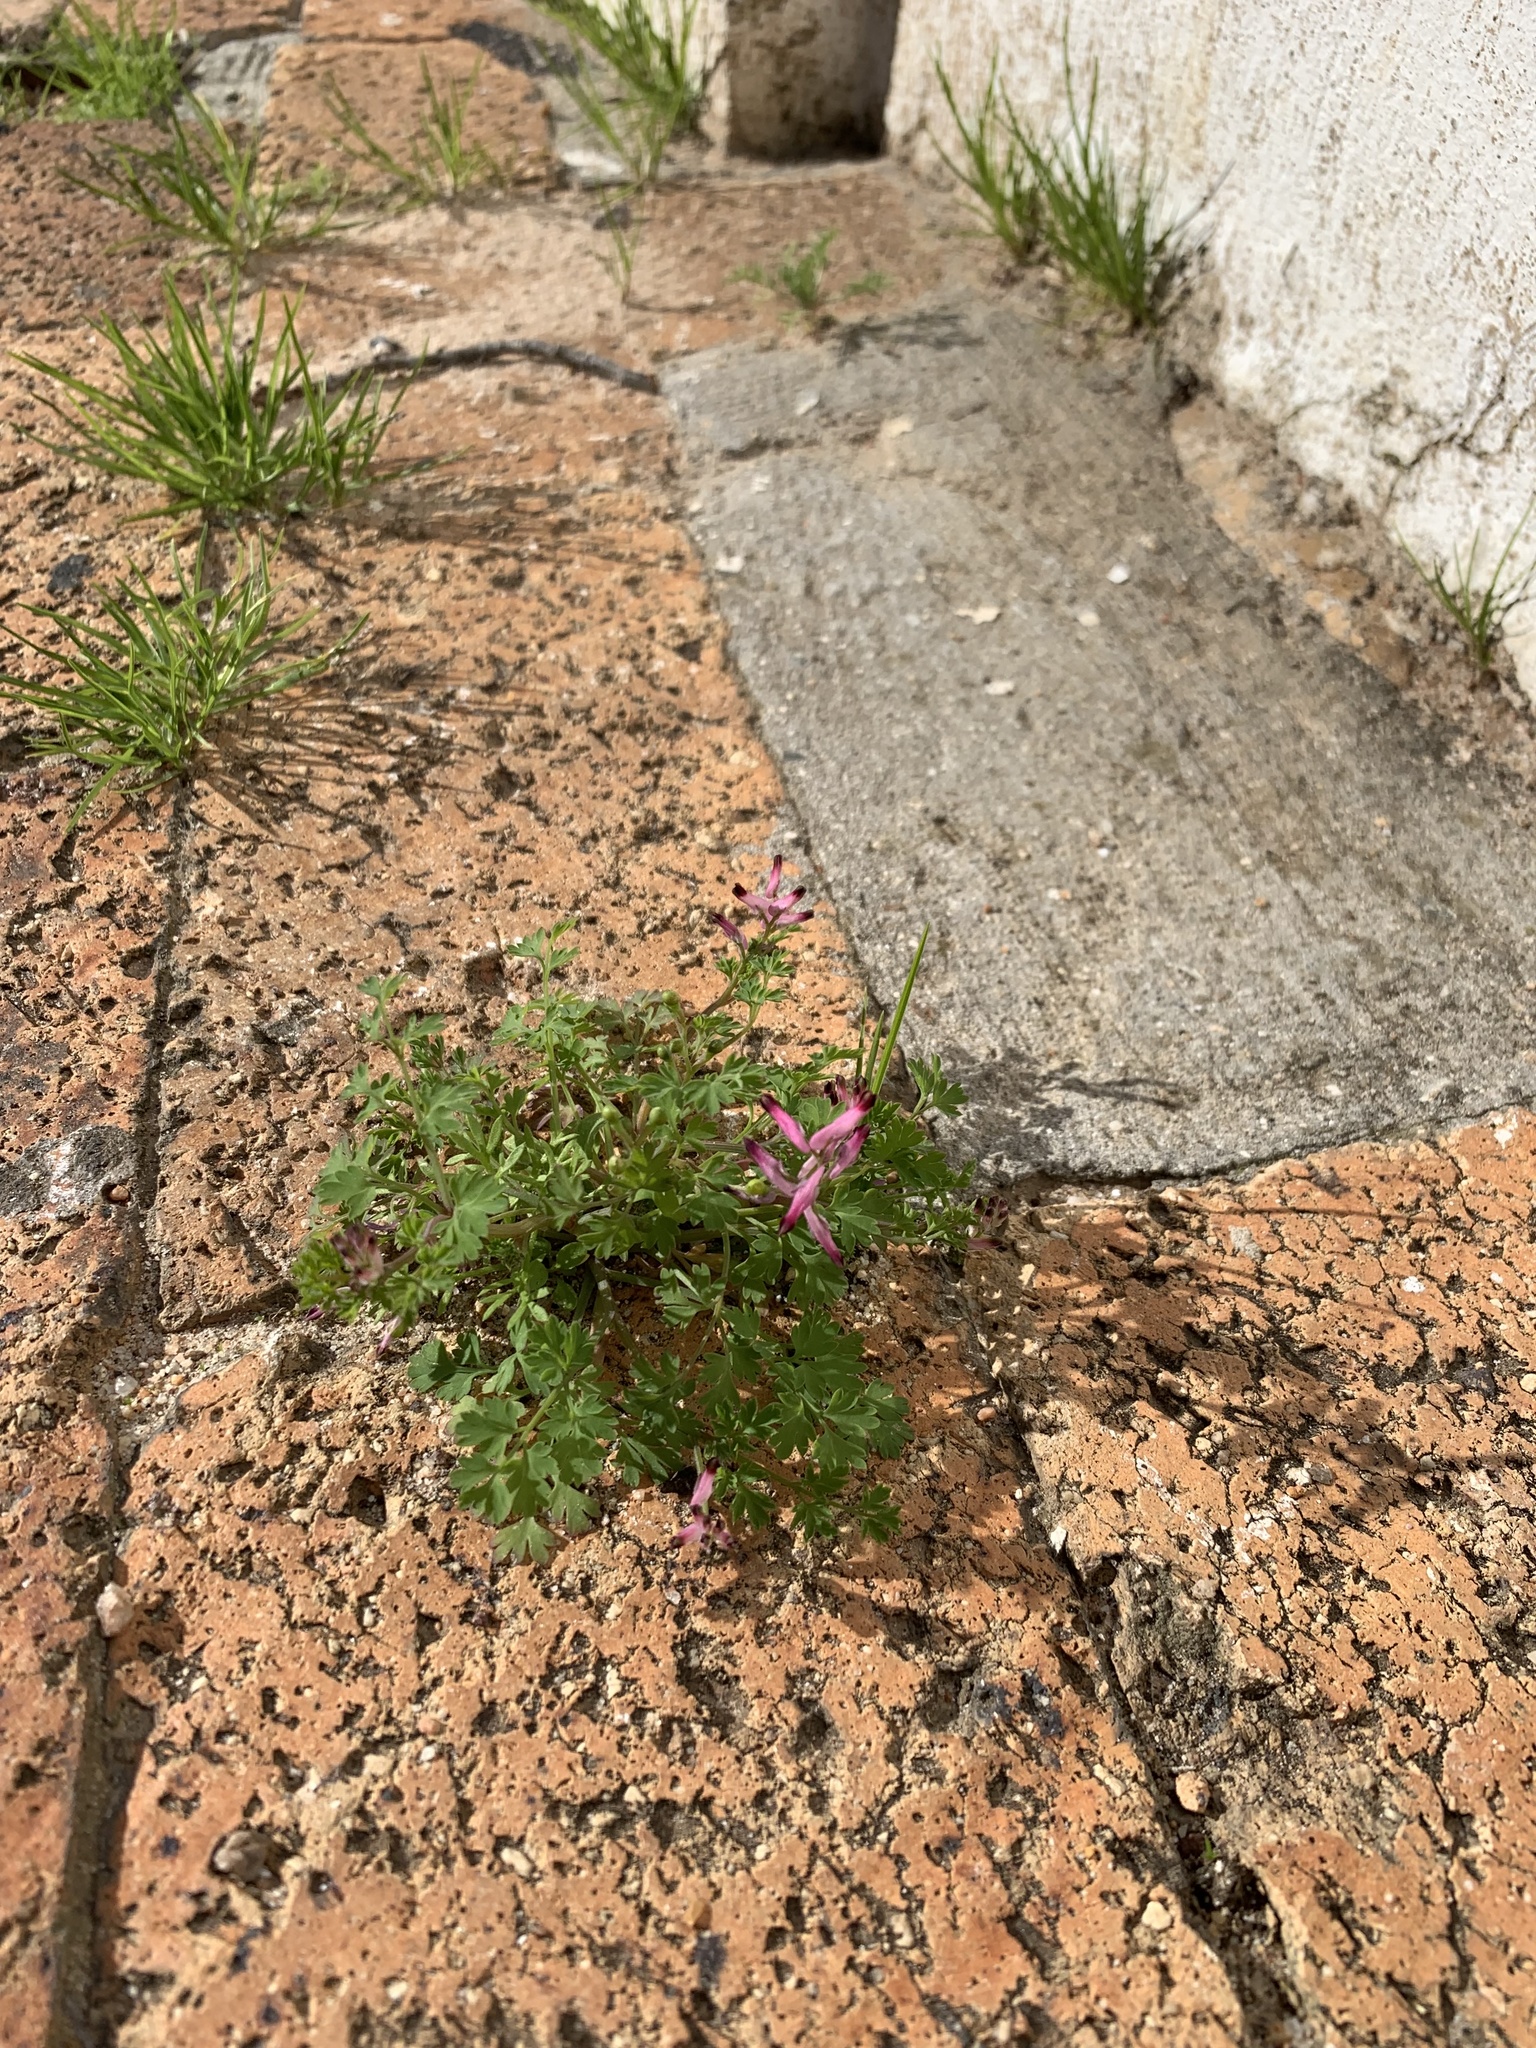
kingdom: Plantae
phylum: Tracheophyta
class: Magnoliopsida
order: Ranunculales
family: Papaveraceae
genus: Fumaria
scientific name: Fumaria muralis
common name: Common ramping-fumitory
